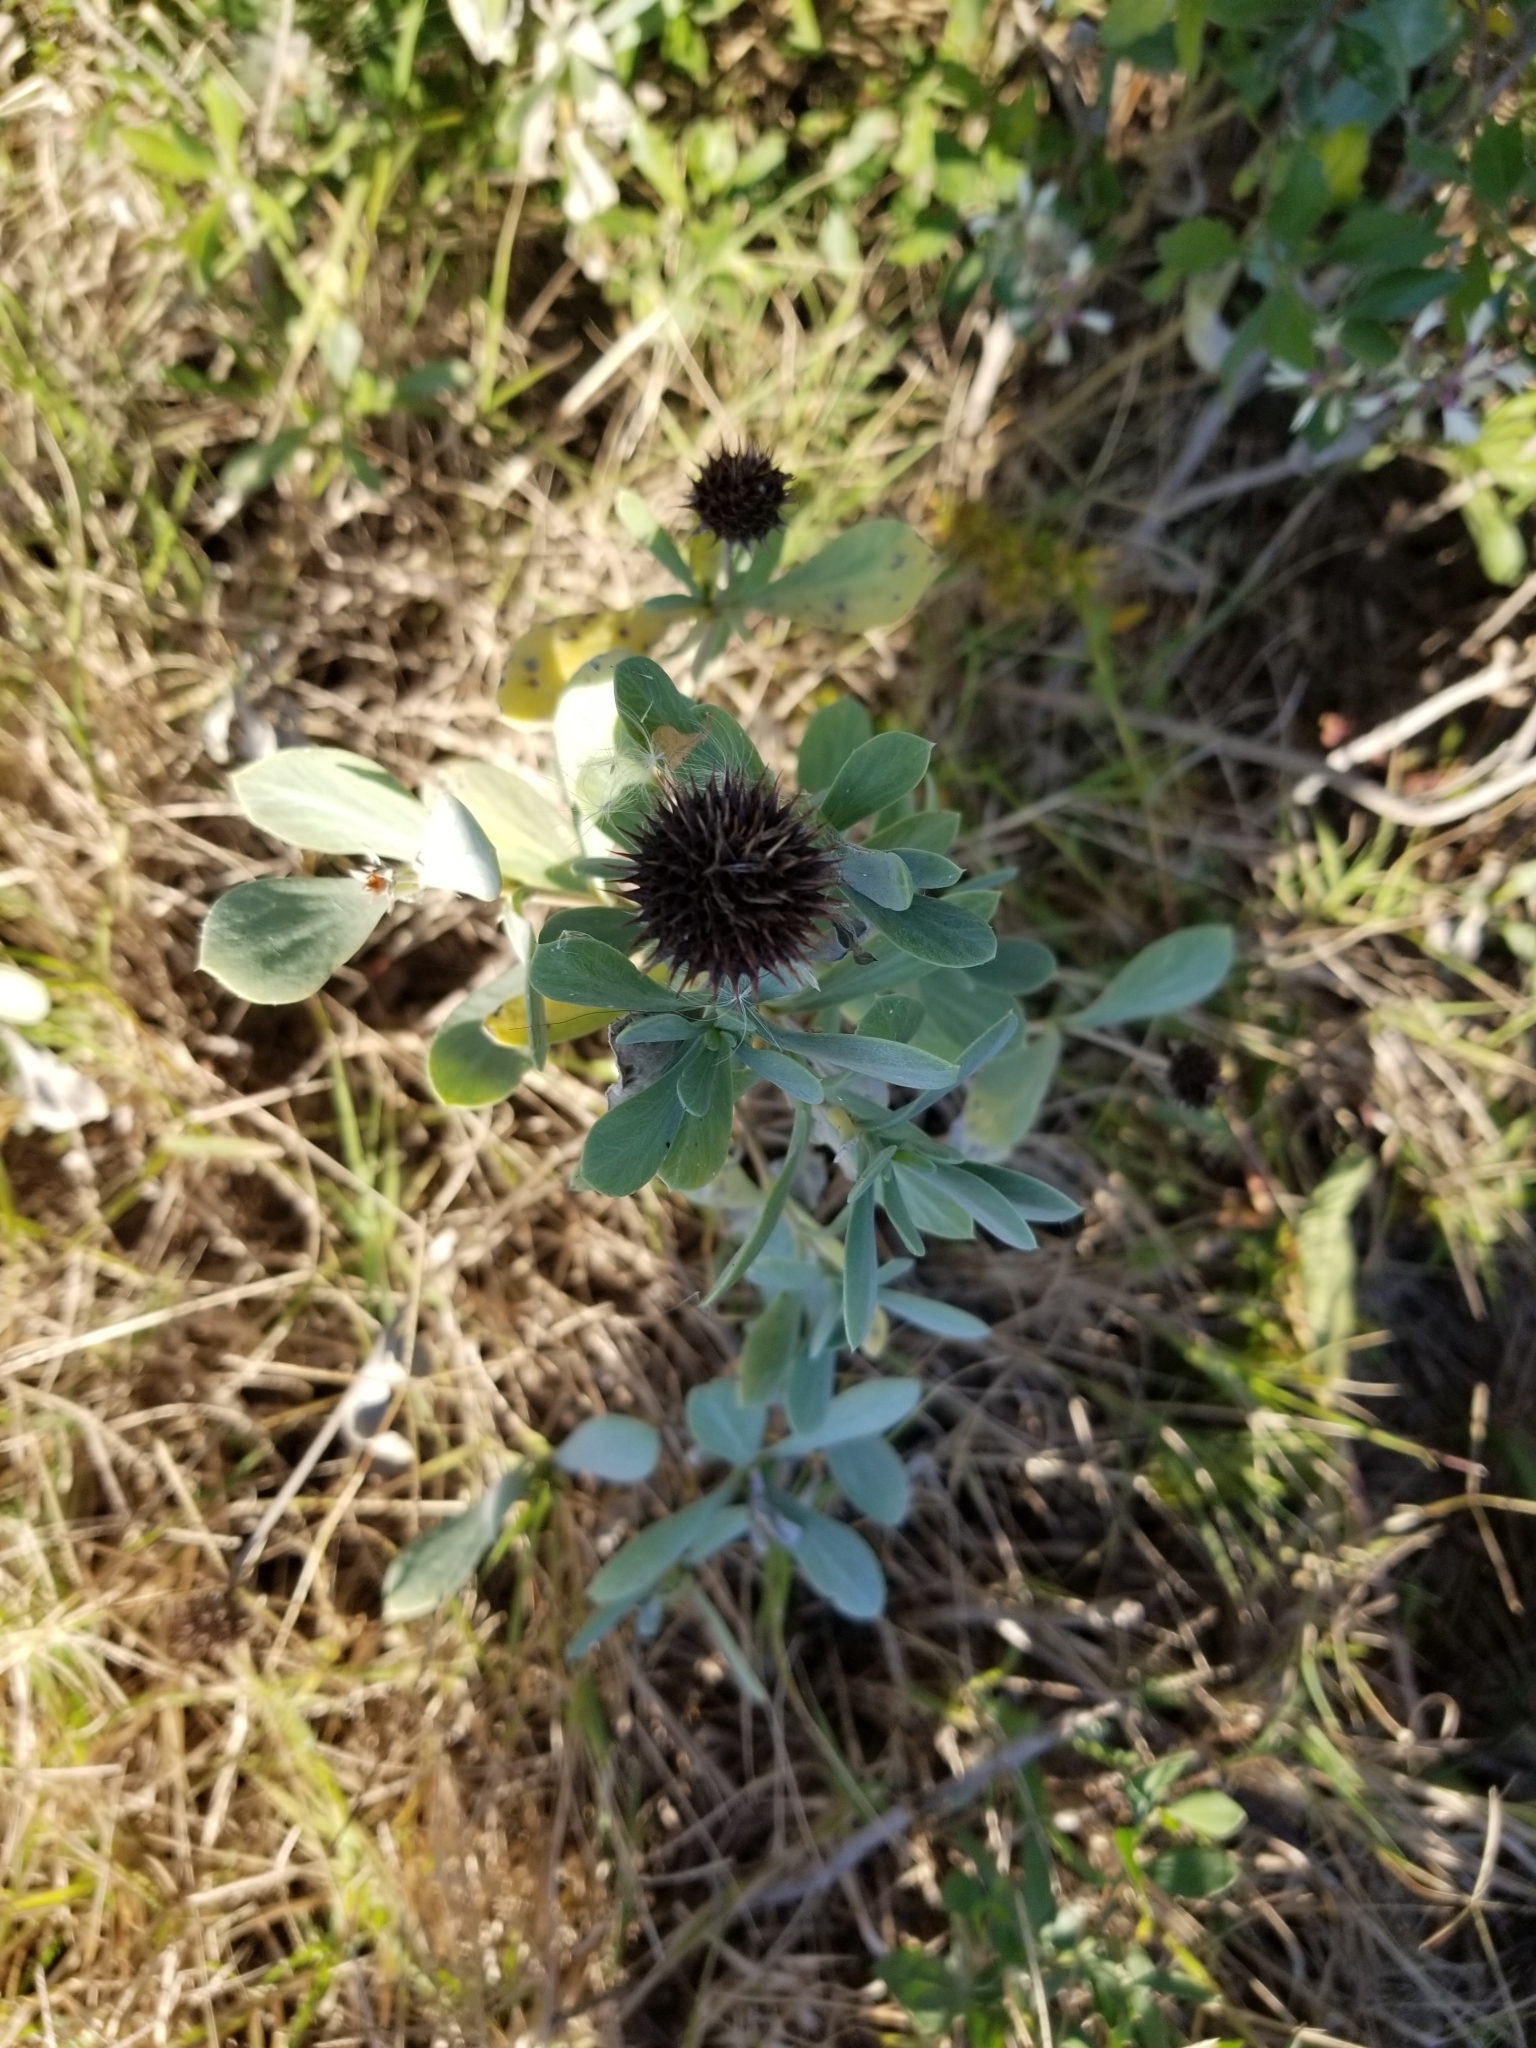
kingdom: Plantae
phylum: Tracheophyta
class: Magnoliopsida
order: Asterales
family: Asteraceae
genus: Borrichia
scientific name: Borrichia frutescens
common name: Sea oxeye
